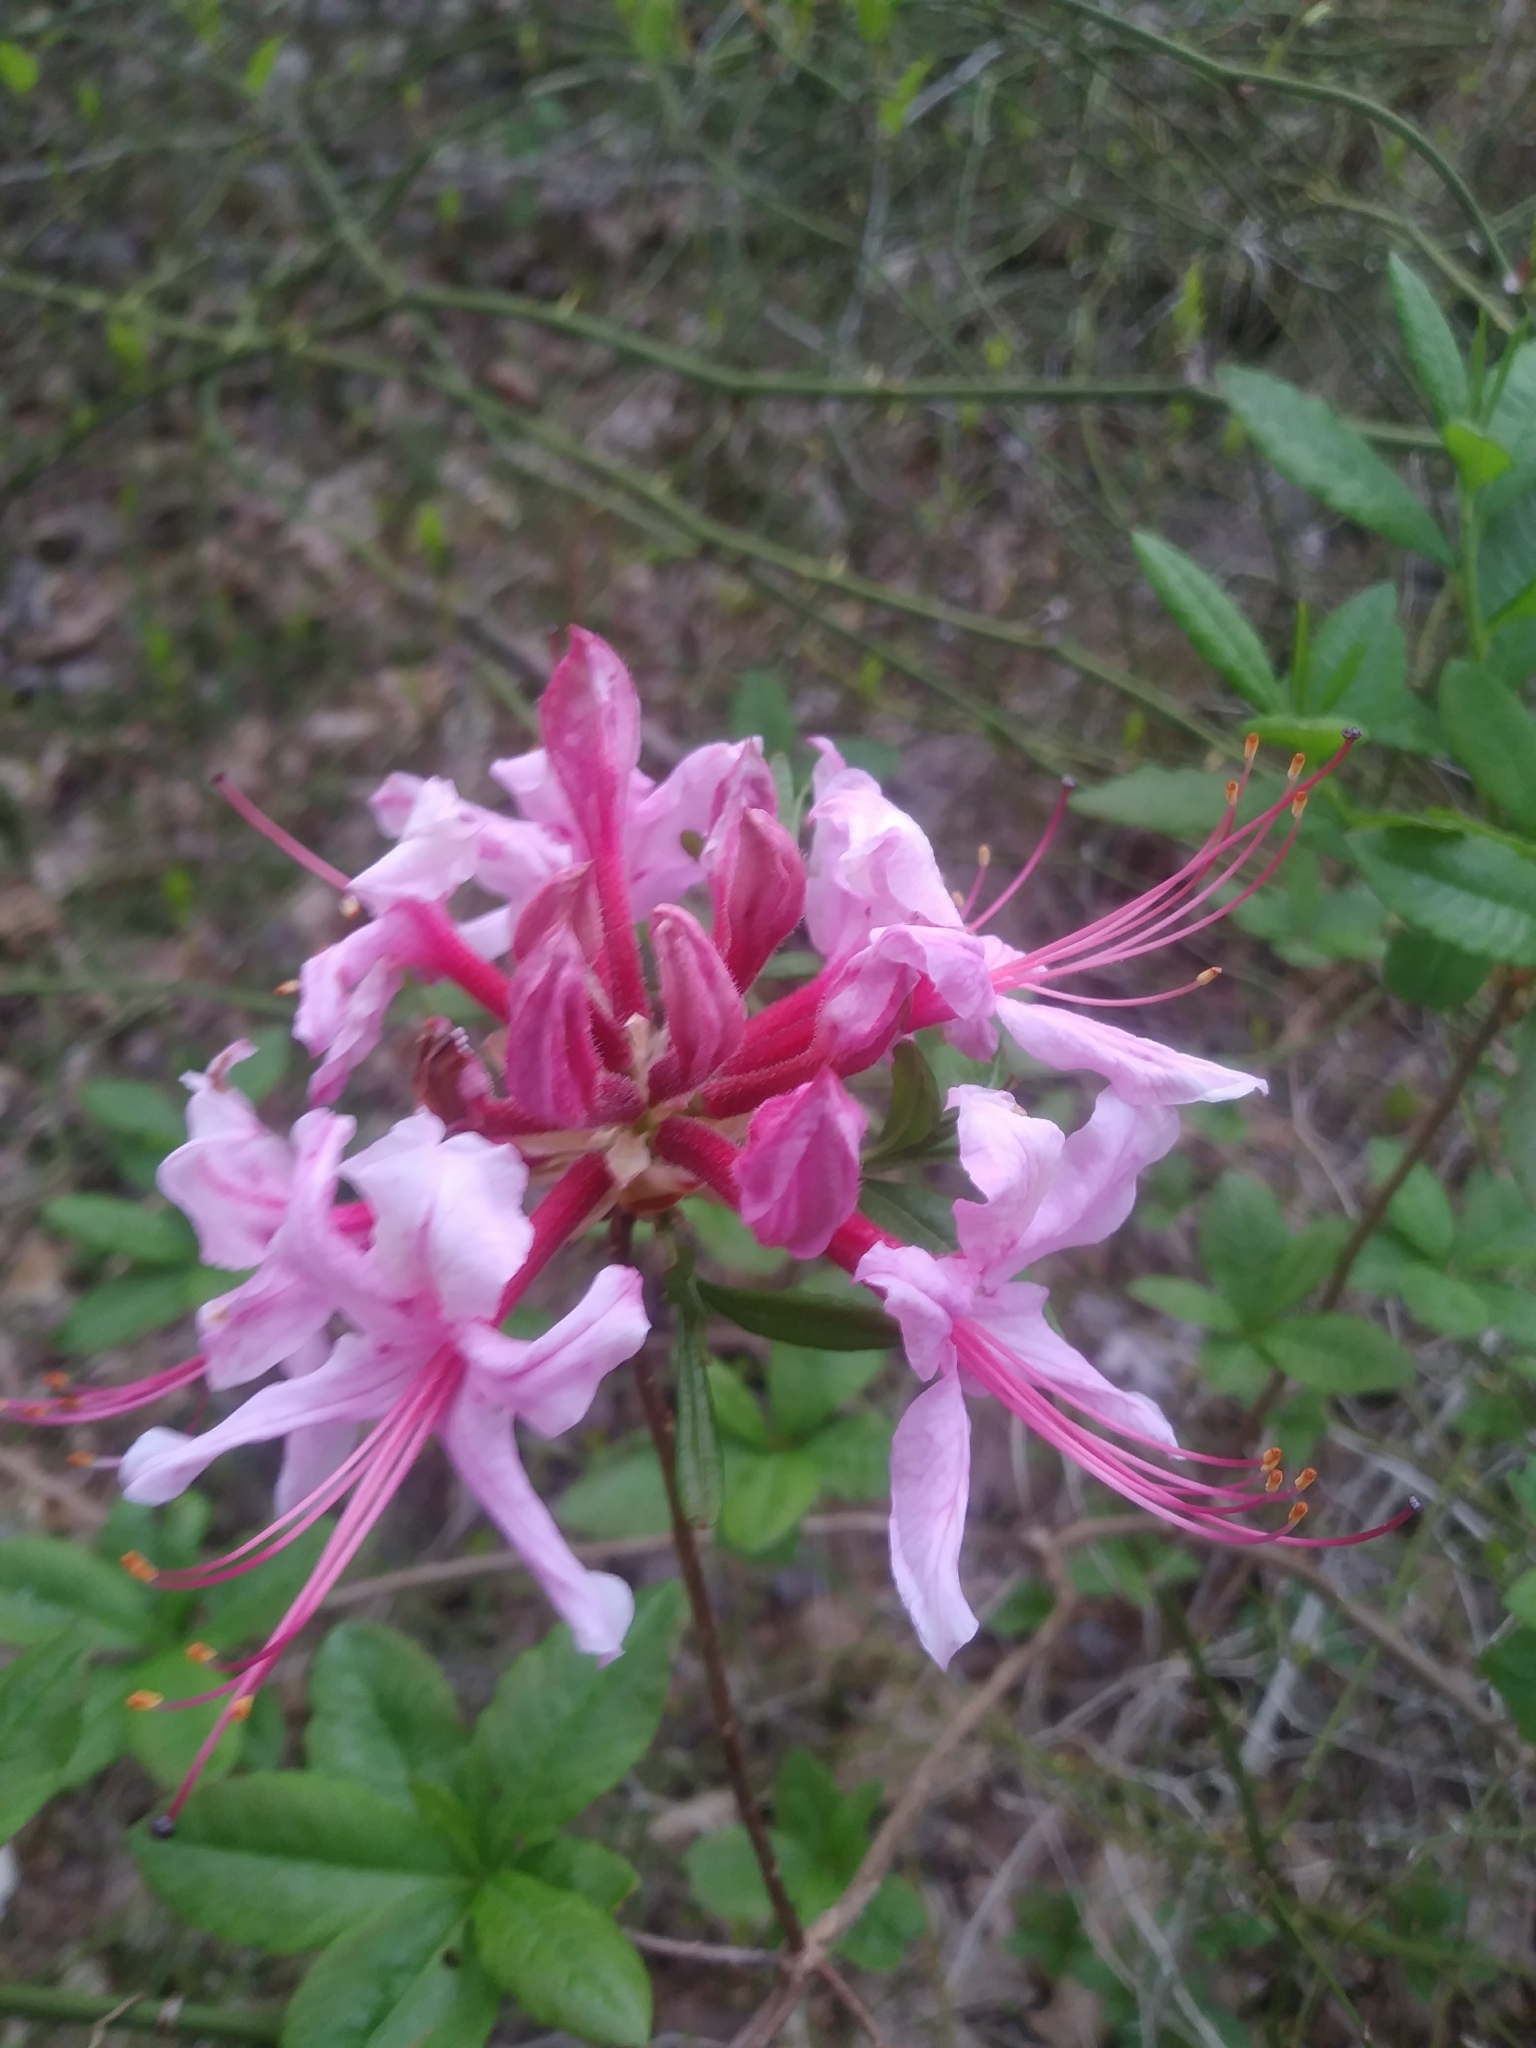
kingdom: Plantae
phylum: Tracheophyta
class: Magnoliopsida
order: Ericales
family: Ericaceae
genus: Rhododendron
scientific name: Rhododendron periclymenoides
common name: Election-pink
